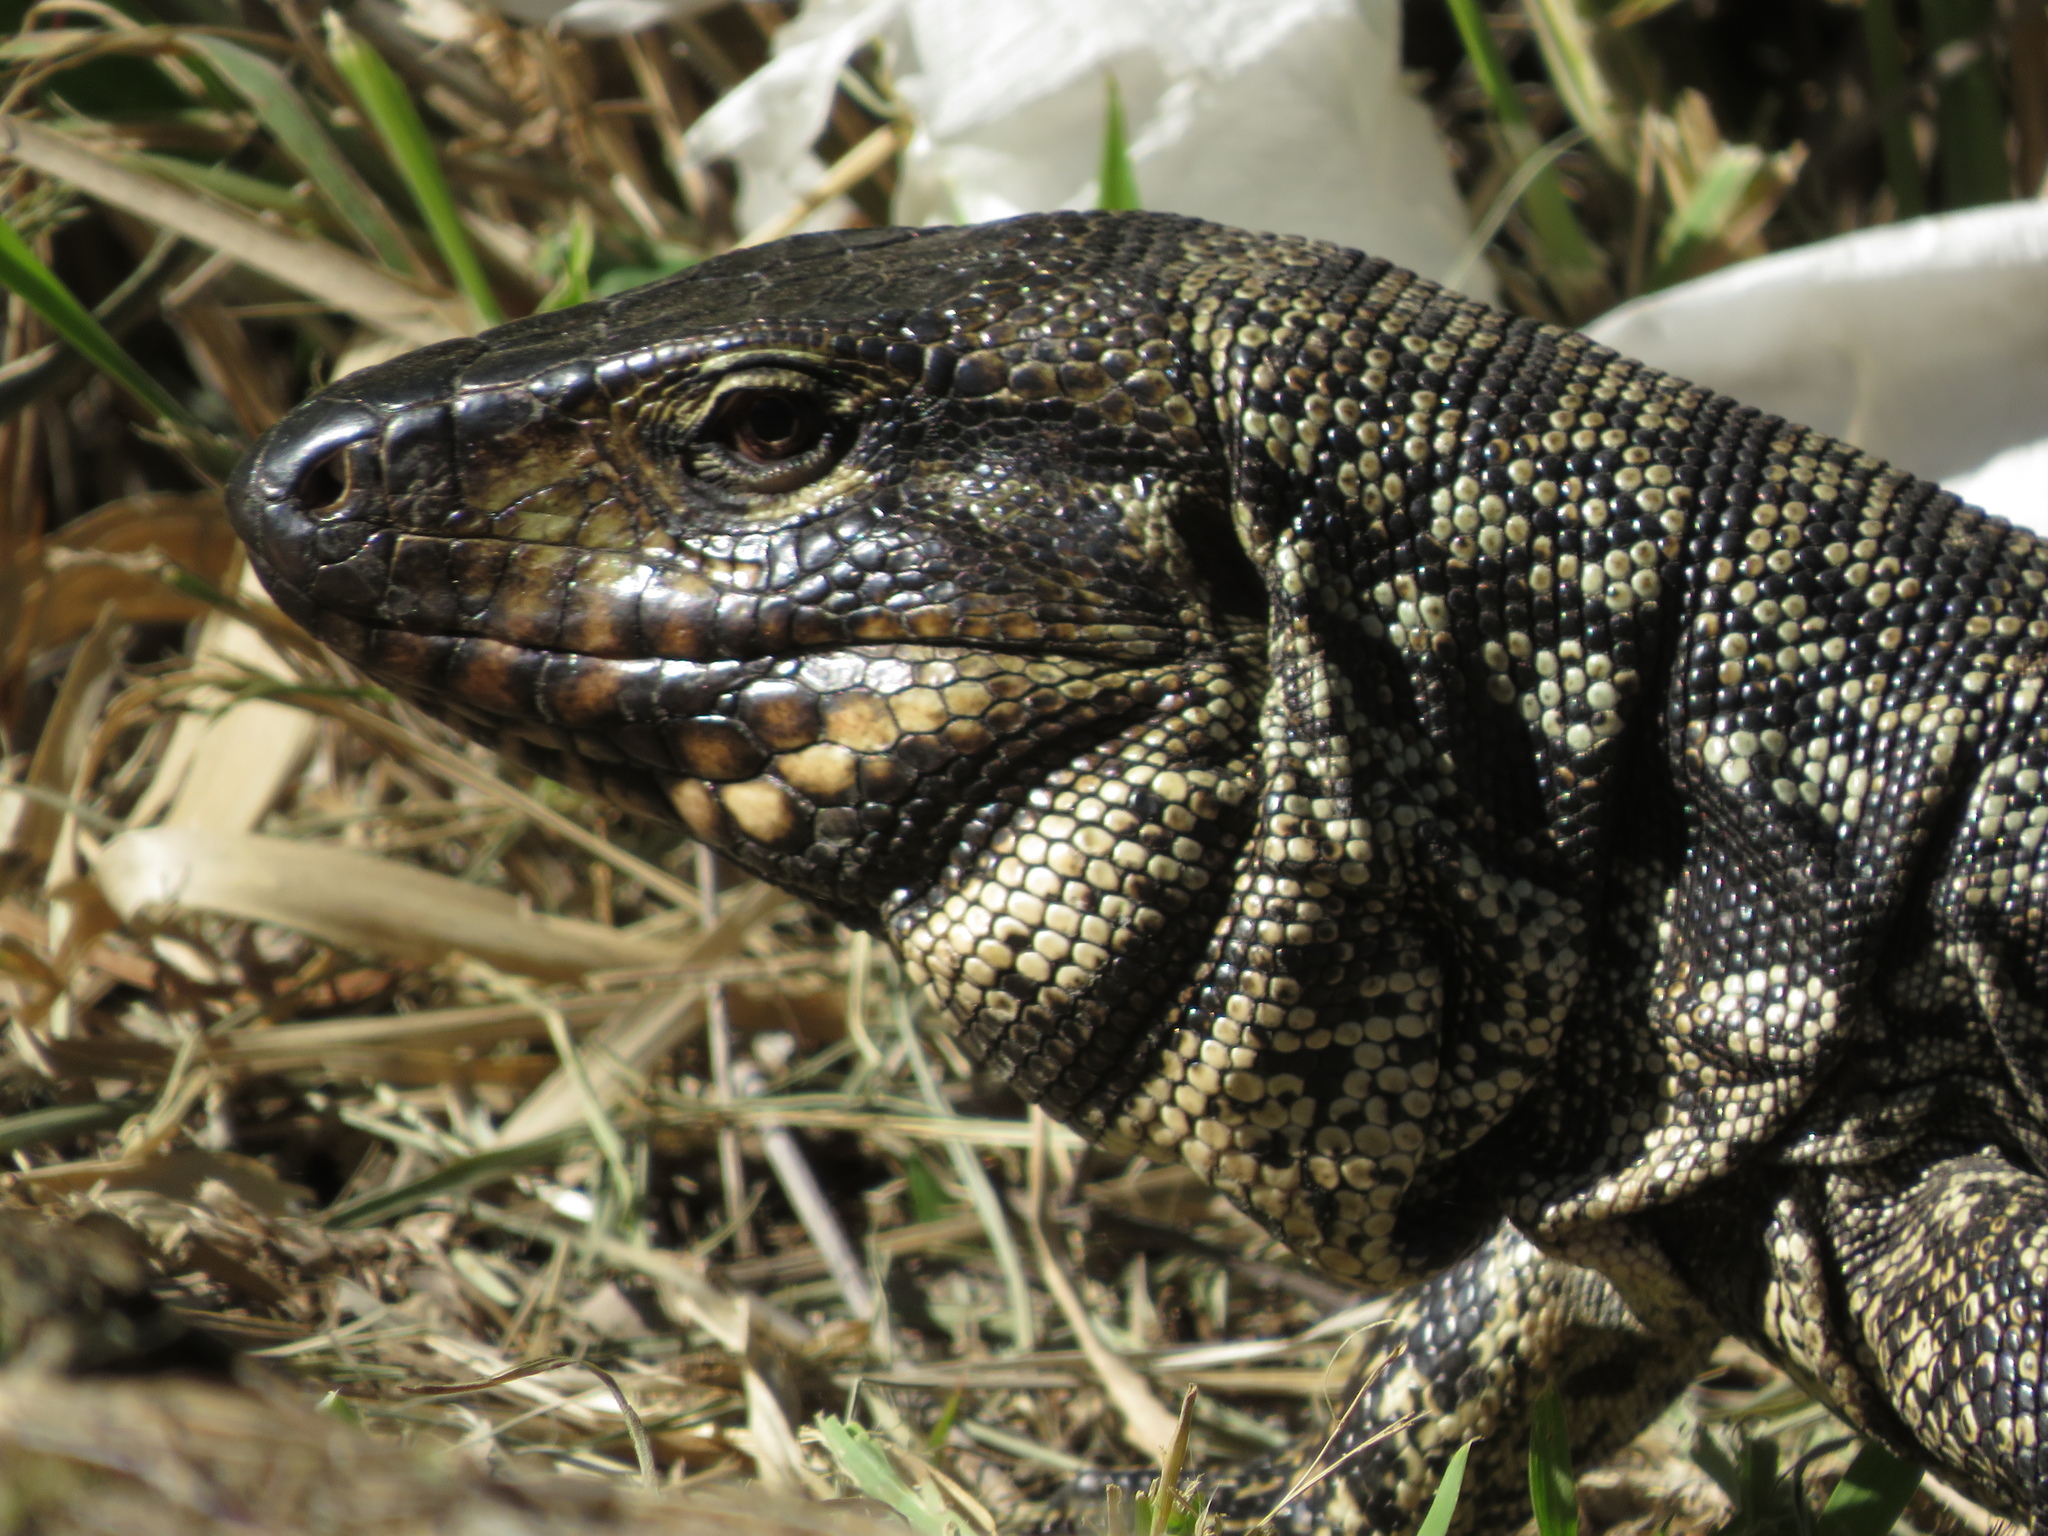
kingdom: Animalia
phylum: Chordata
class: Squamata
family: Teiidae
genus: Salvator
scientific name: Salvator merianae
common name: Argentine black and white tegu
